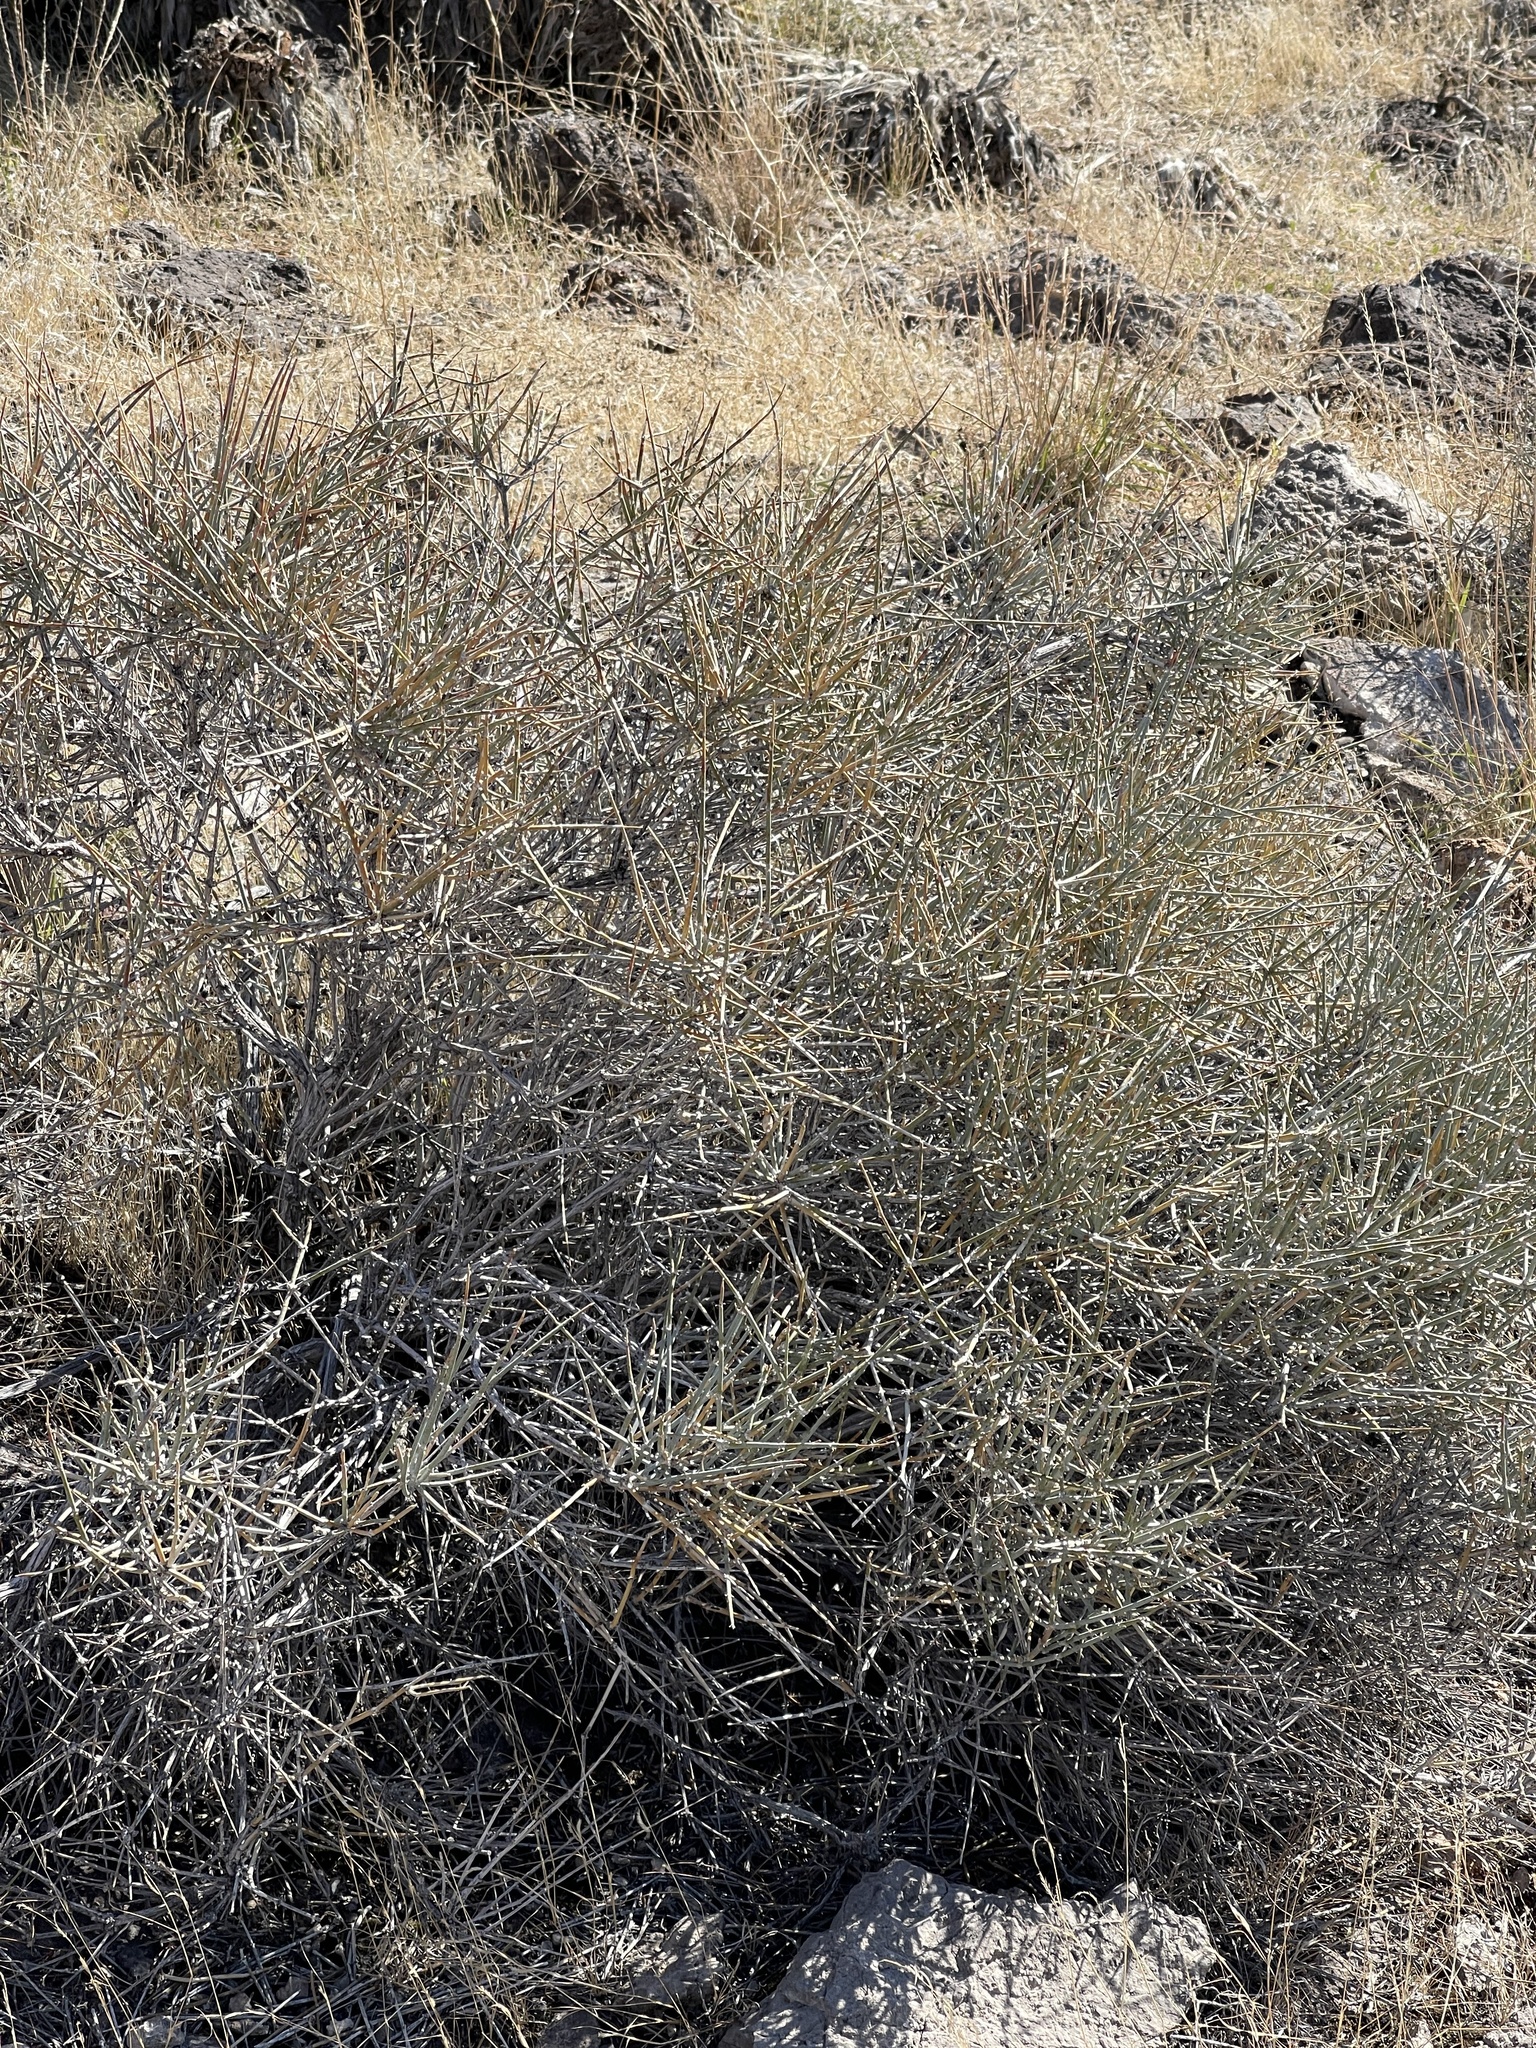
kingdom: Plantae
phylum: Tracheophyta
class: Gnetopsida
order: Ephedrales
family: Ephedraceae
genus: Ephedra
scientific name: Ephedra nevadensis
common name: Gray ephedra
